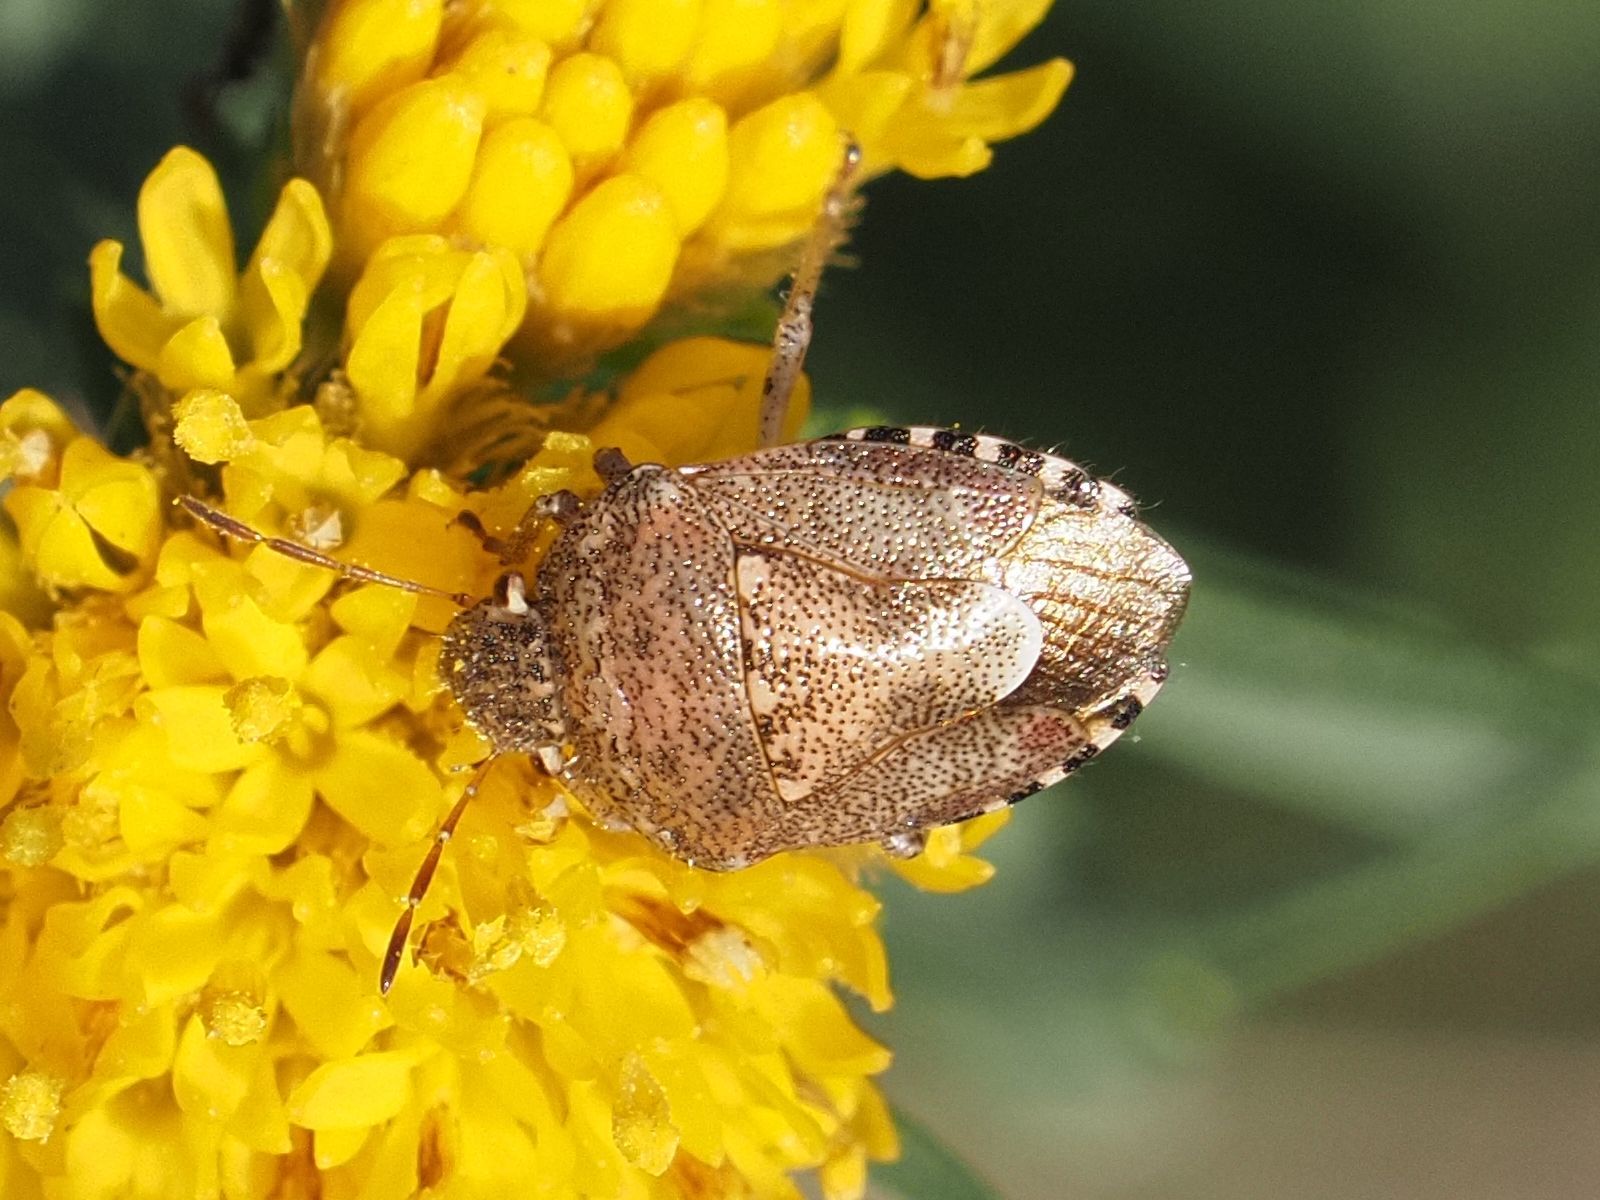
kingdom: Animalia
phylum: Arthropoda
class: Insecta
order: Hemiptera
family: Pentatomidae
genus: Staria
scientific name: Staria lunata
